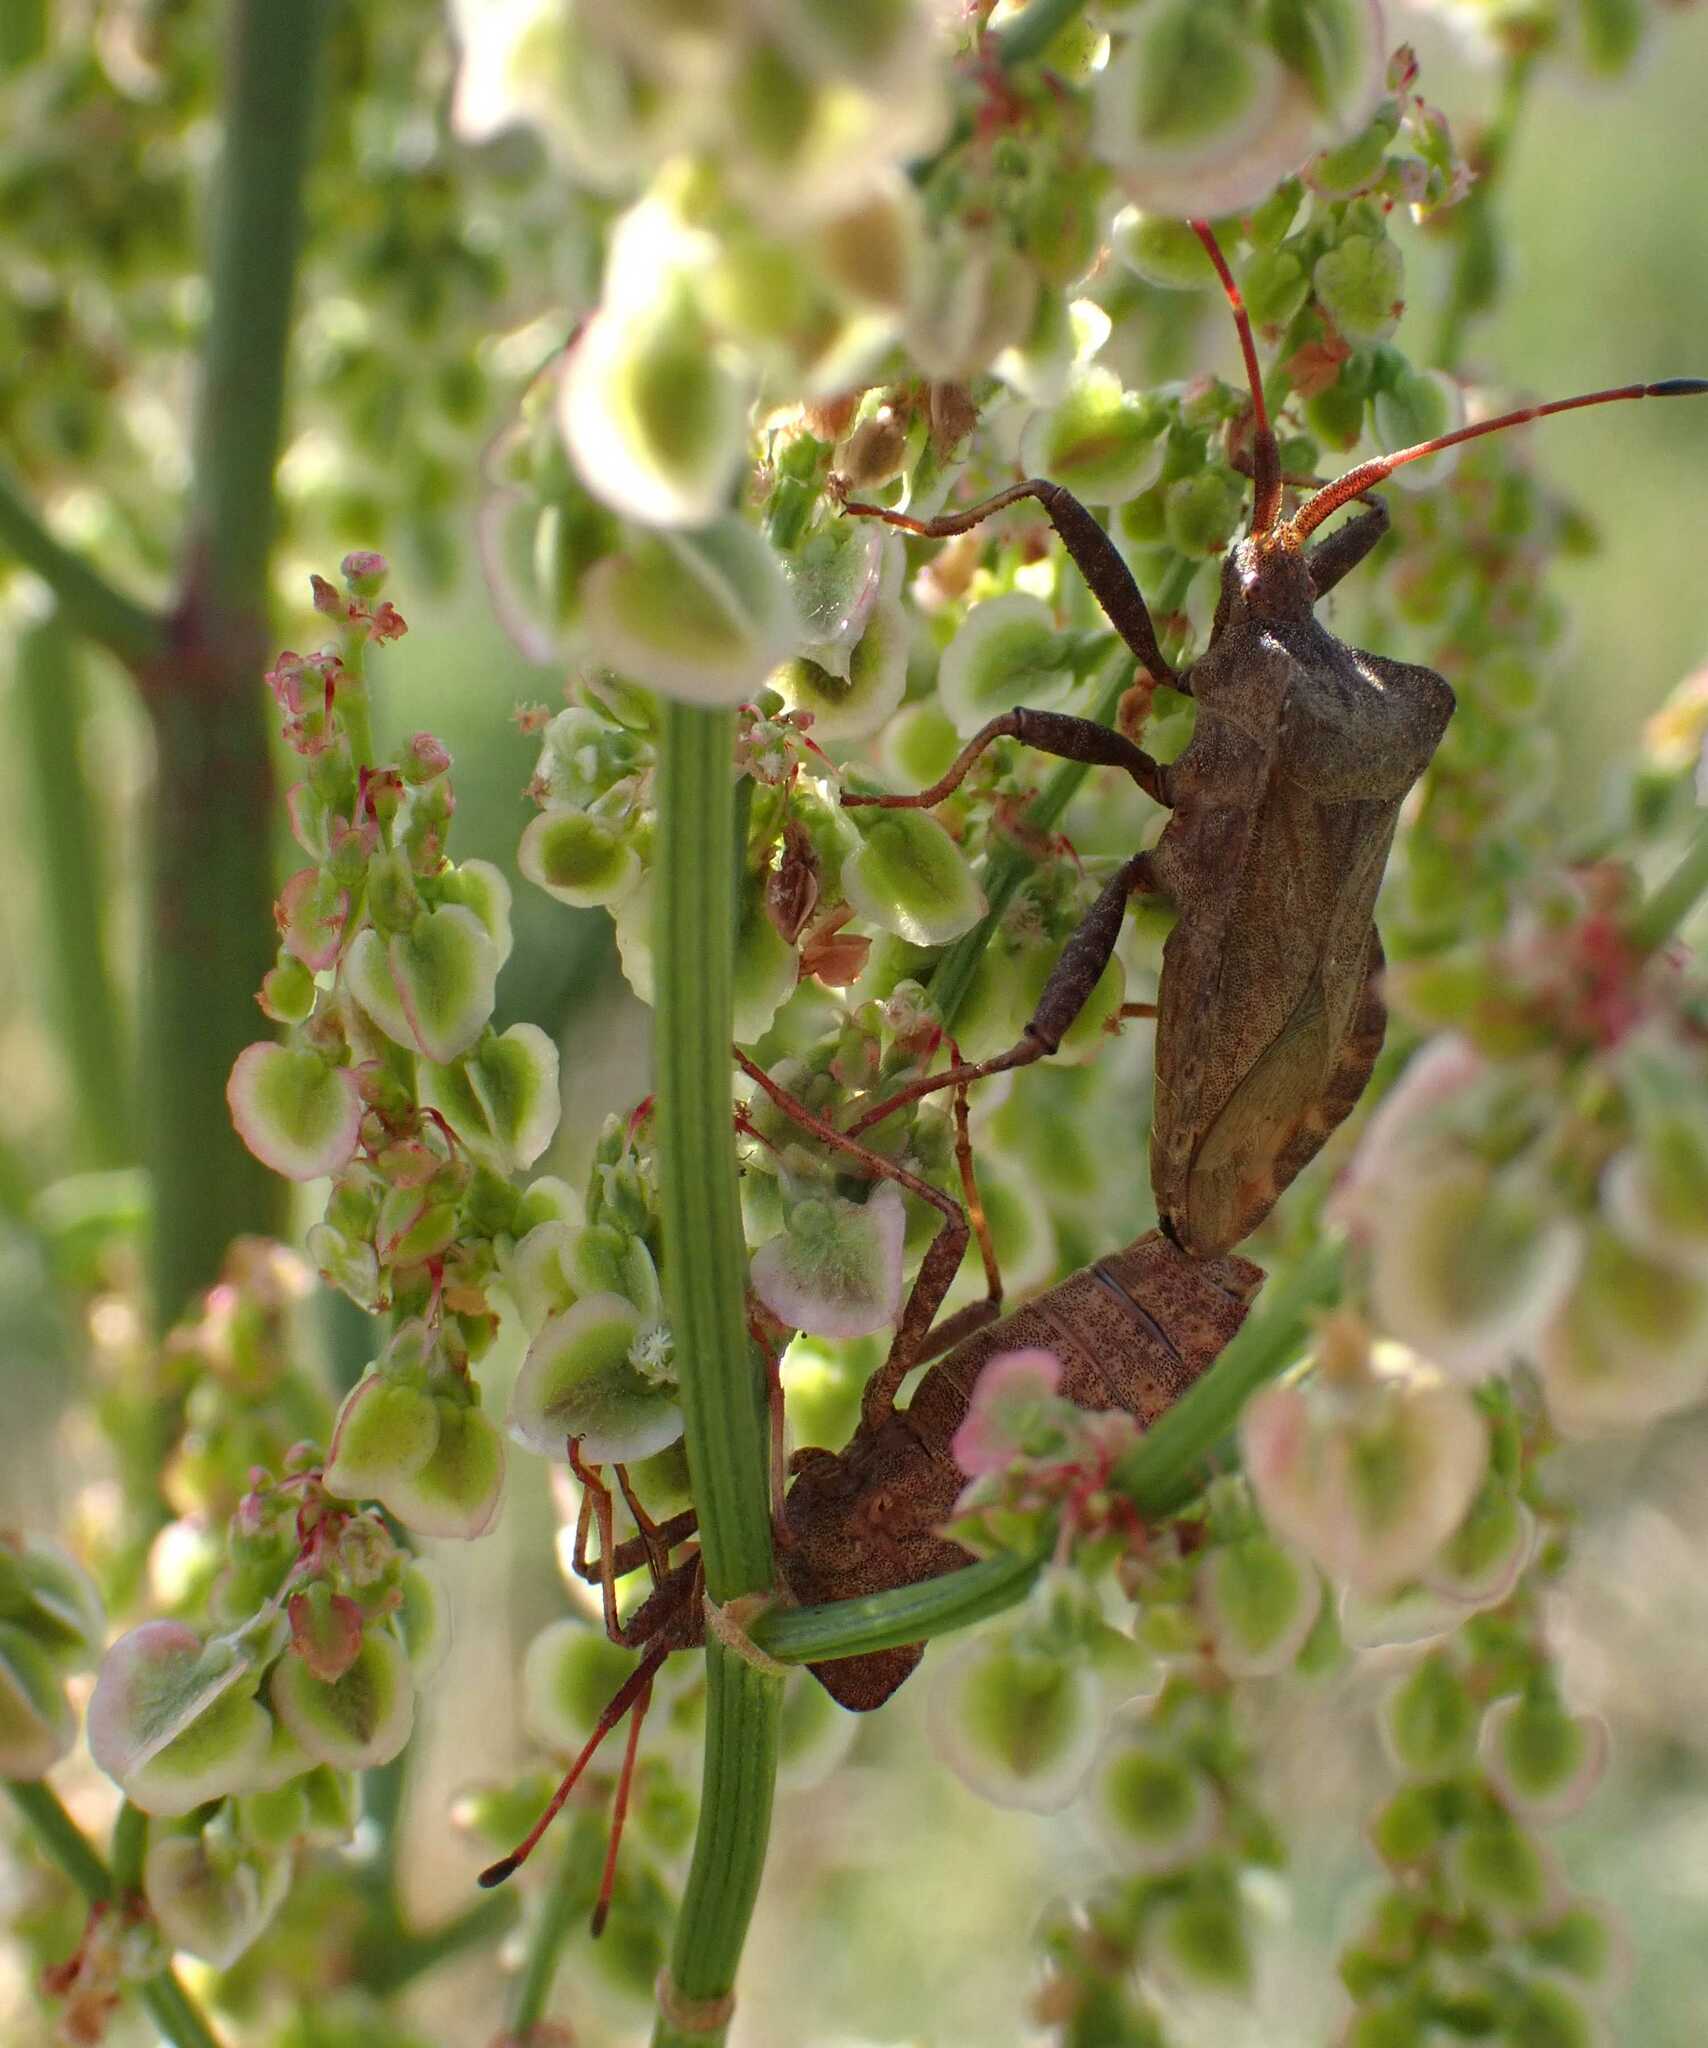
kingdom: Animalia
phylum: Arthropoda
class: Insecta
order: Hemiptera
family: Coreidae
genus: Coreus
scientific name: Coreus marginatus
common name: Dock bug
